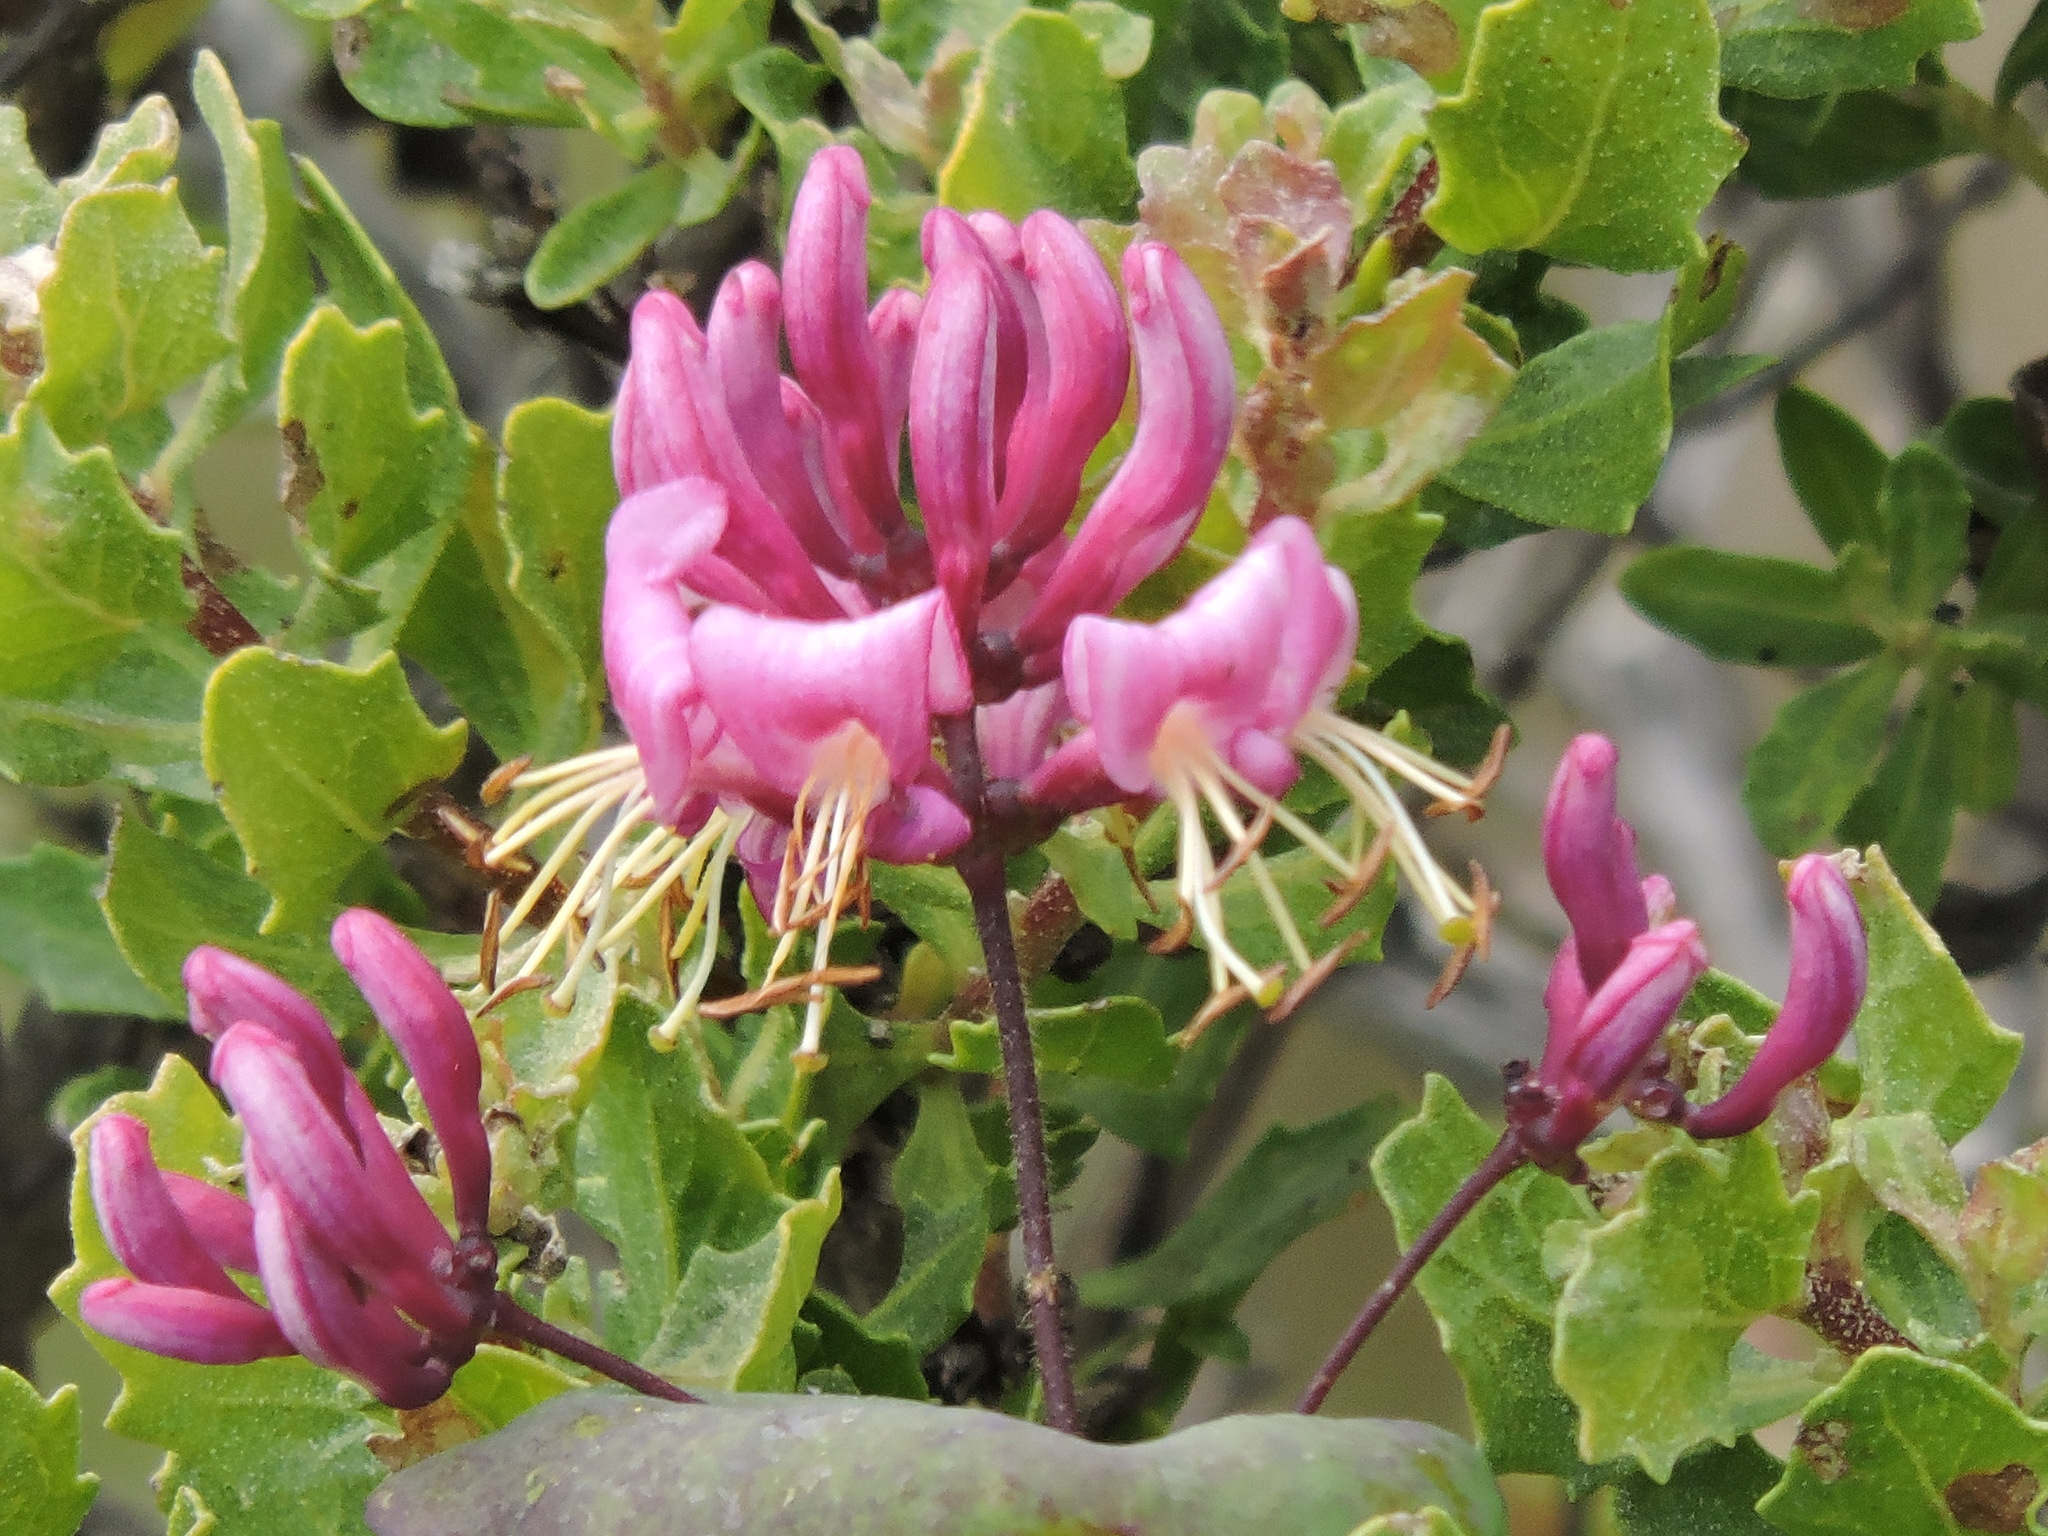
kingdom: Plantae
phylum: Tracheophyta
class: Magnoliopsida
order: Dipsacales
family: Caprifoliaceae
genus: Lonicera
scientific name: Lonicera hispidula
